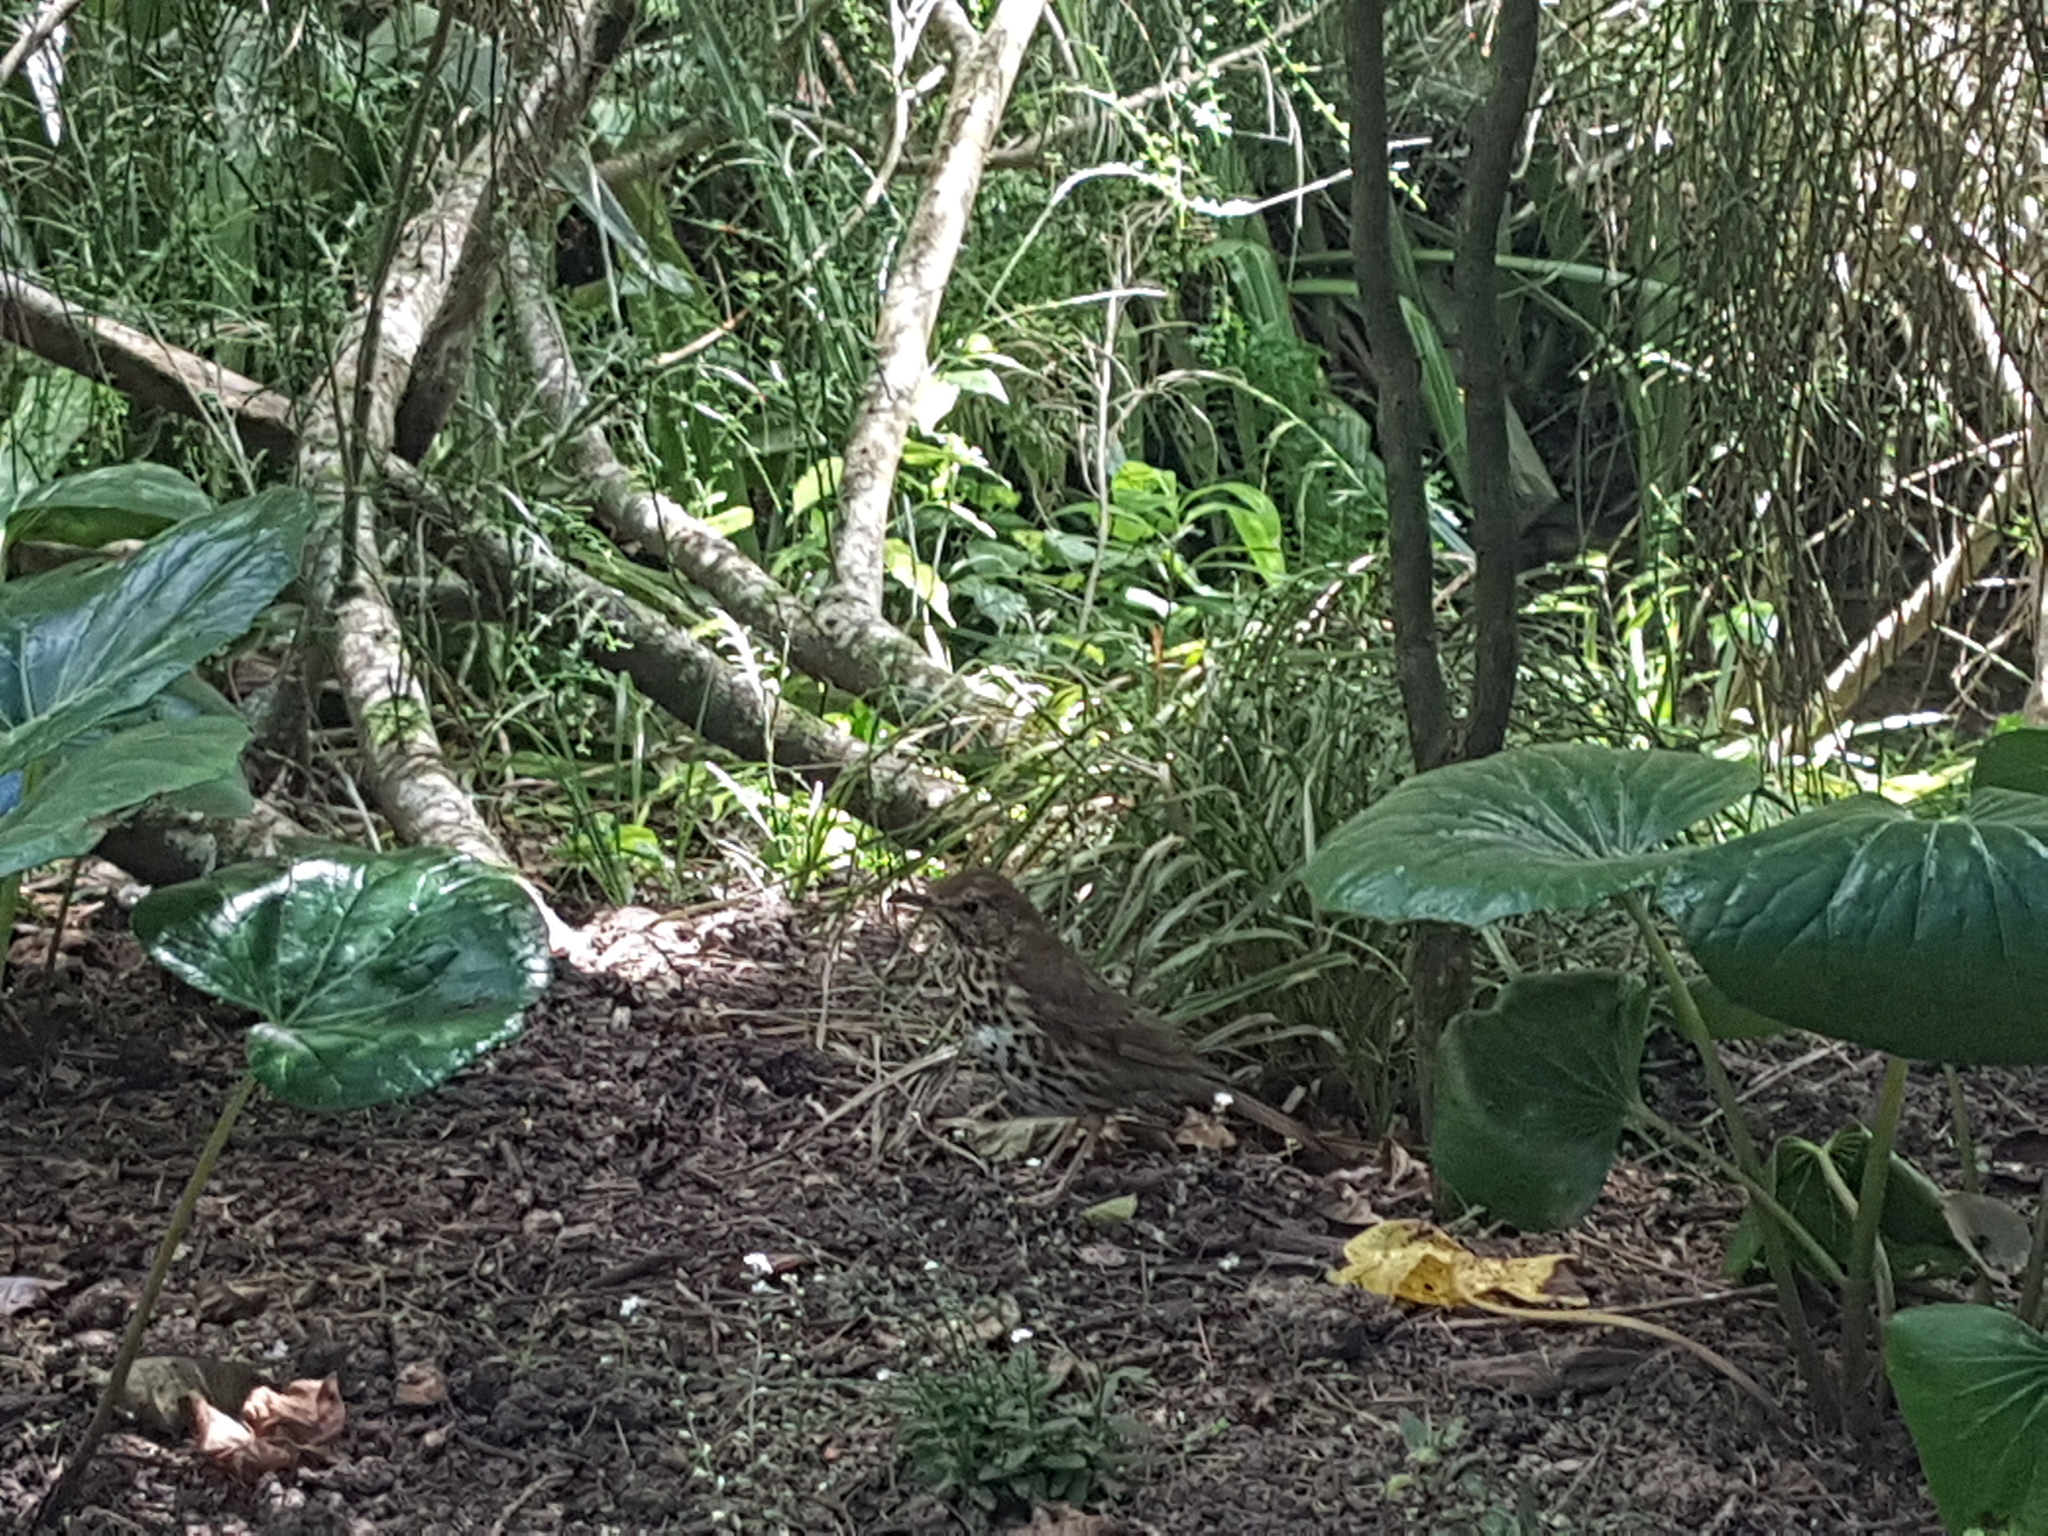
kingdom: Animalia
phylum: Chordata
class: Aves
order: Passeriformes
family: Turdidae
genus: Turdus
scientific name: Turdus philomelos
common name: Song thrush
